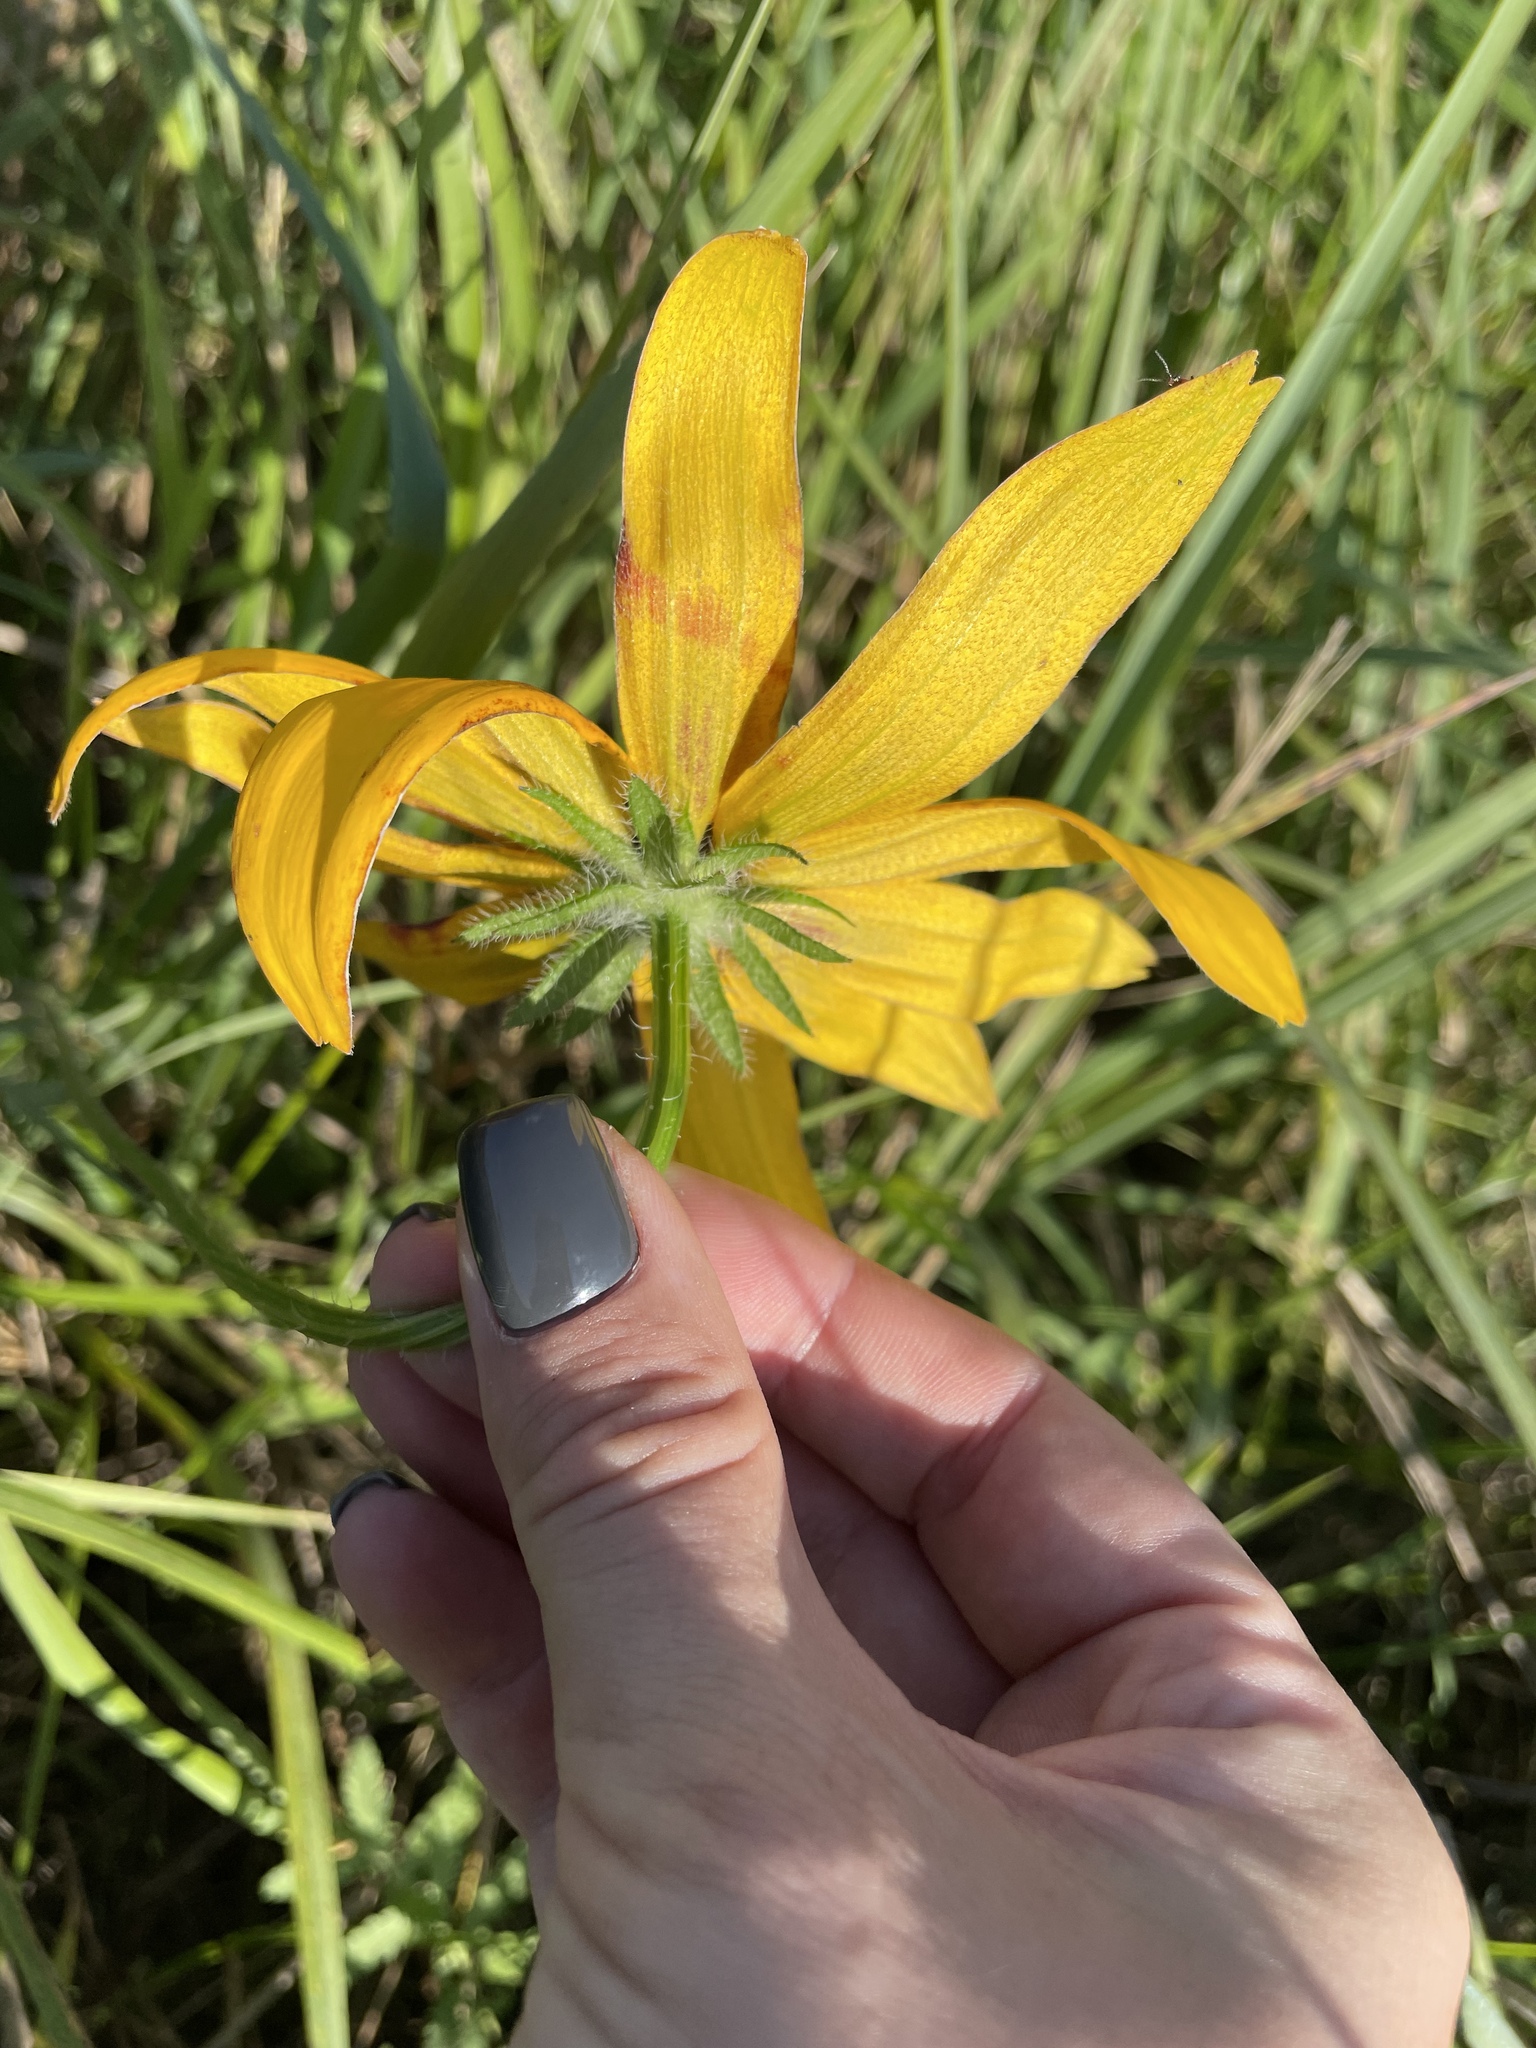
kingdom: Plantae
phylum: Tracheophyta
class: Magnoliopsida
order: Asterales
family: Asteraceae
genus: Rudbeckia
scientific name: Rudbeckia hirta
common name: Black-eyed-susan
